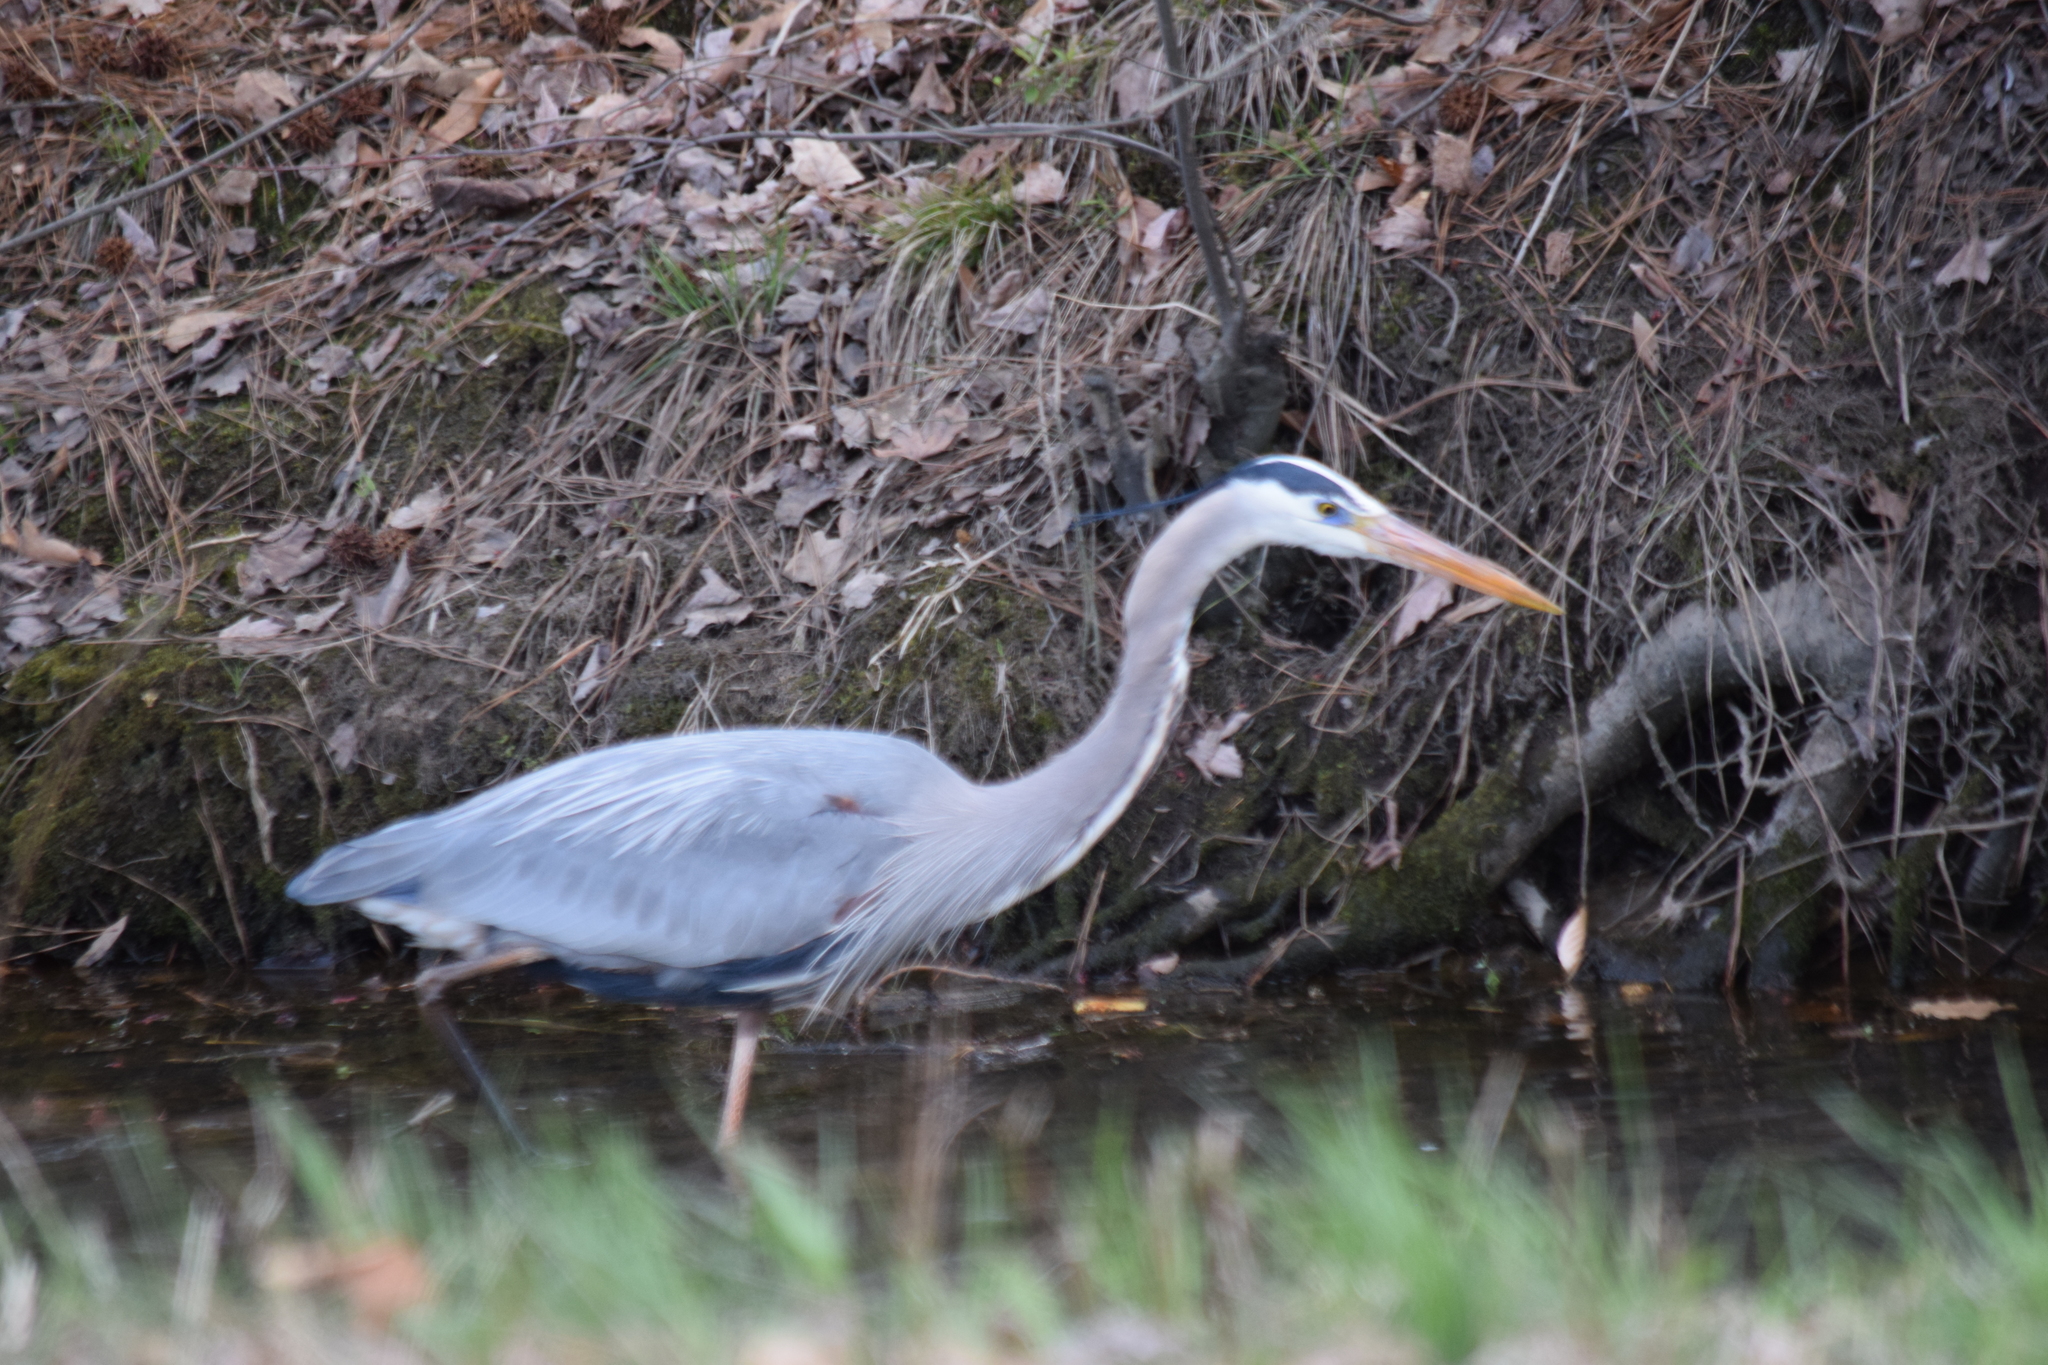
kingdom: Animalia
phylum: Chordata
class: Aves
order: Pelecaniformes
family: Ardeidae
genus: Ardea
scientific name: Ardea herodias
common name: Great blue heron
